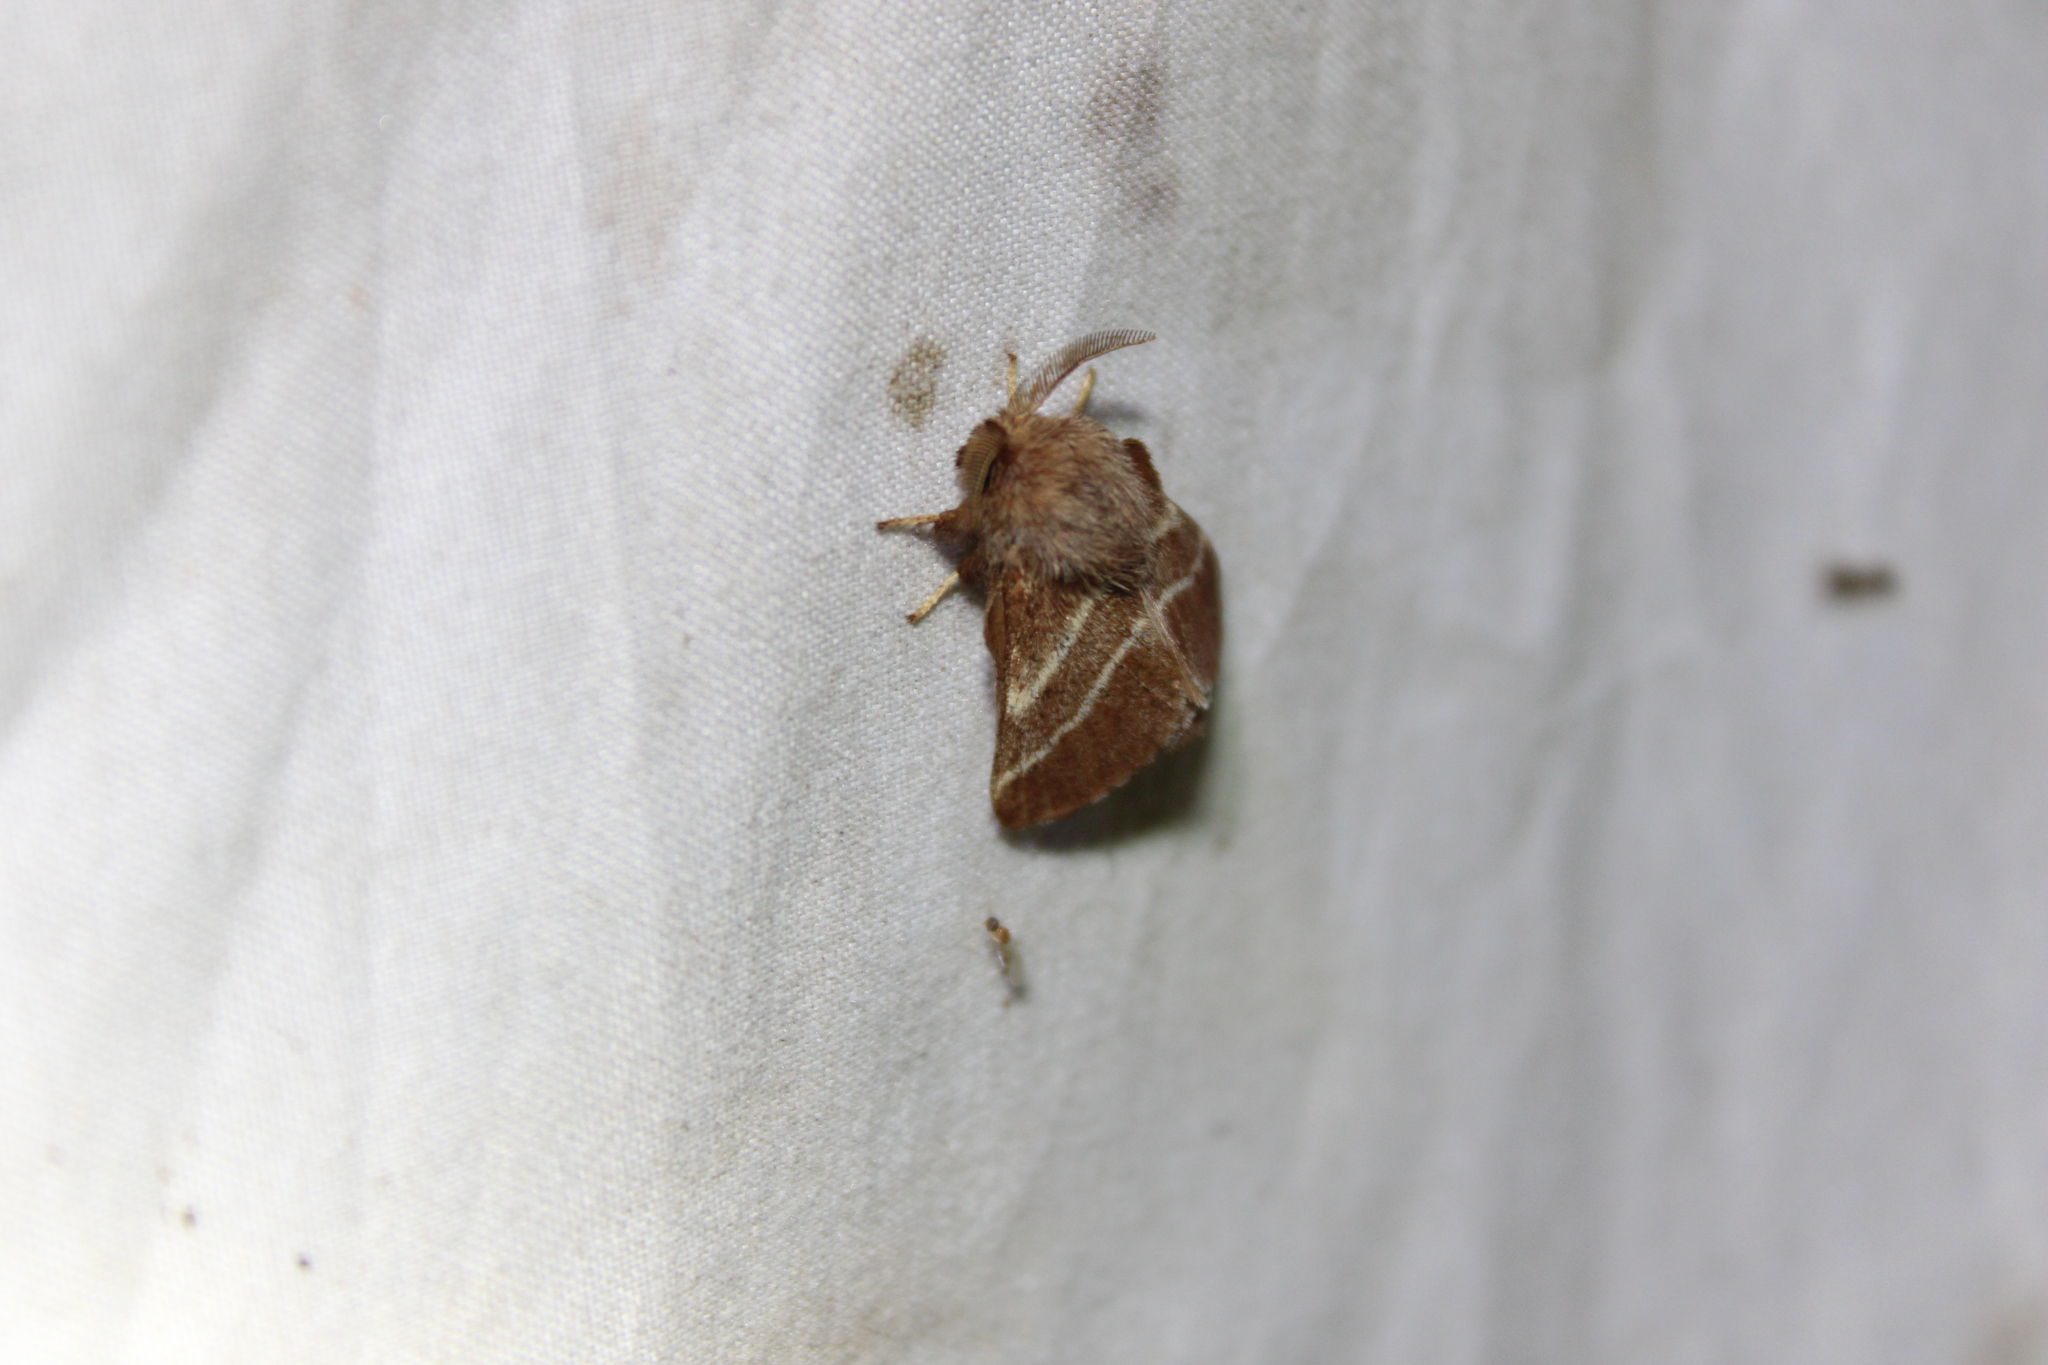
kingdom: Animalia
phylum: Arthropoda
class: Insecta
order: Lepidoptera
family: Lasiocampidae
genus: Malacosoma
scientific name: Malacosoma americana
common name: Eastern tent caterpillar moth
